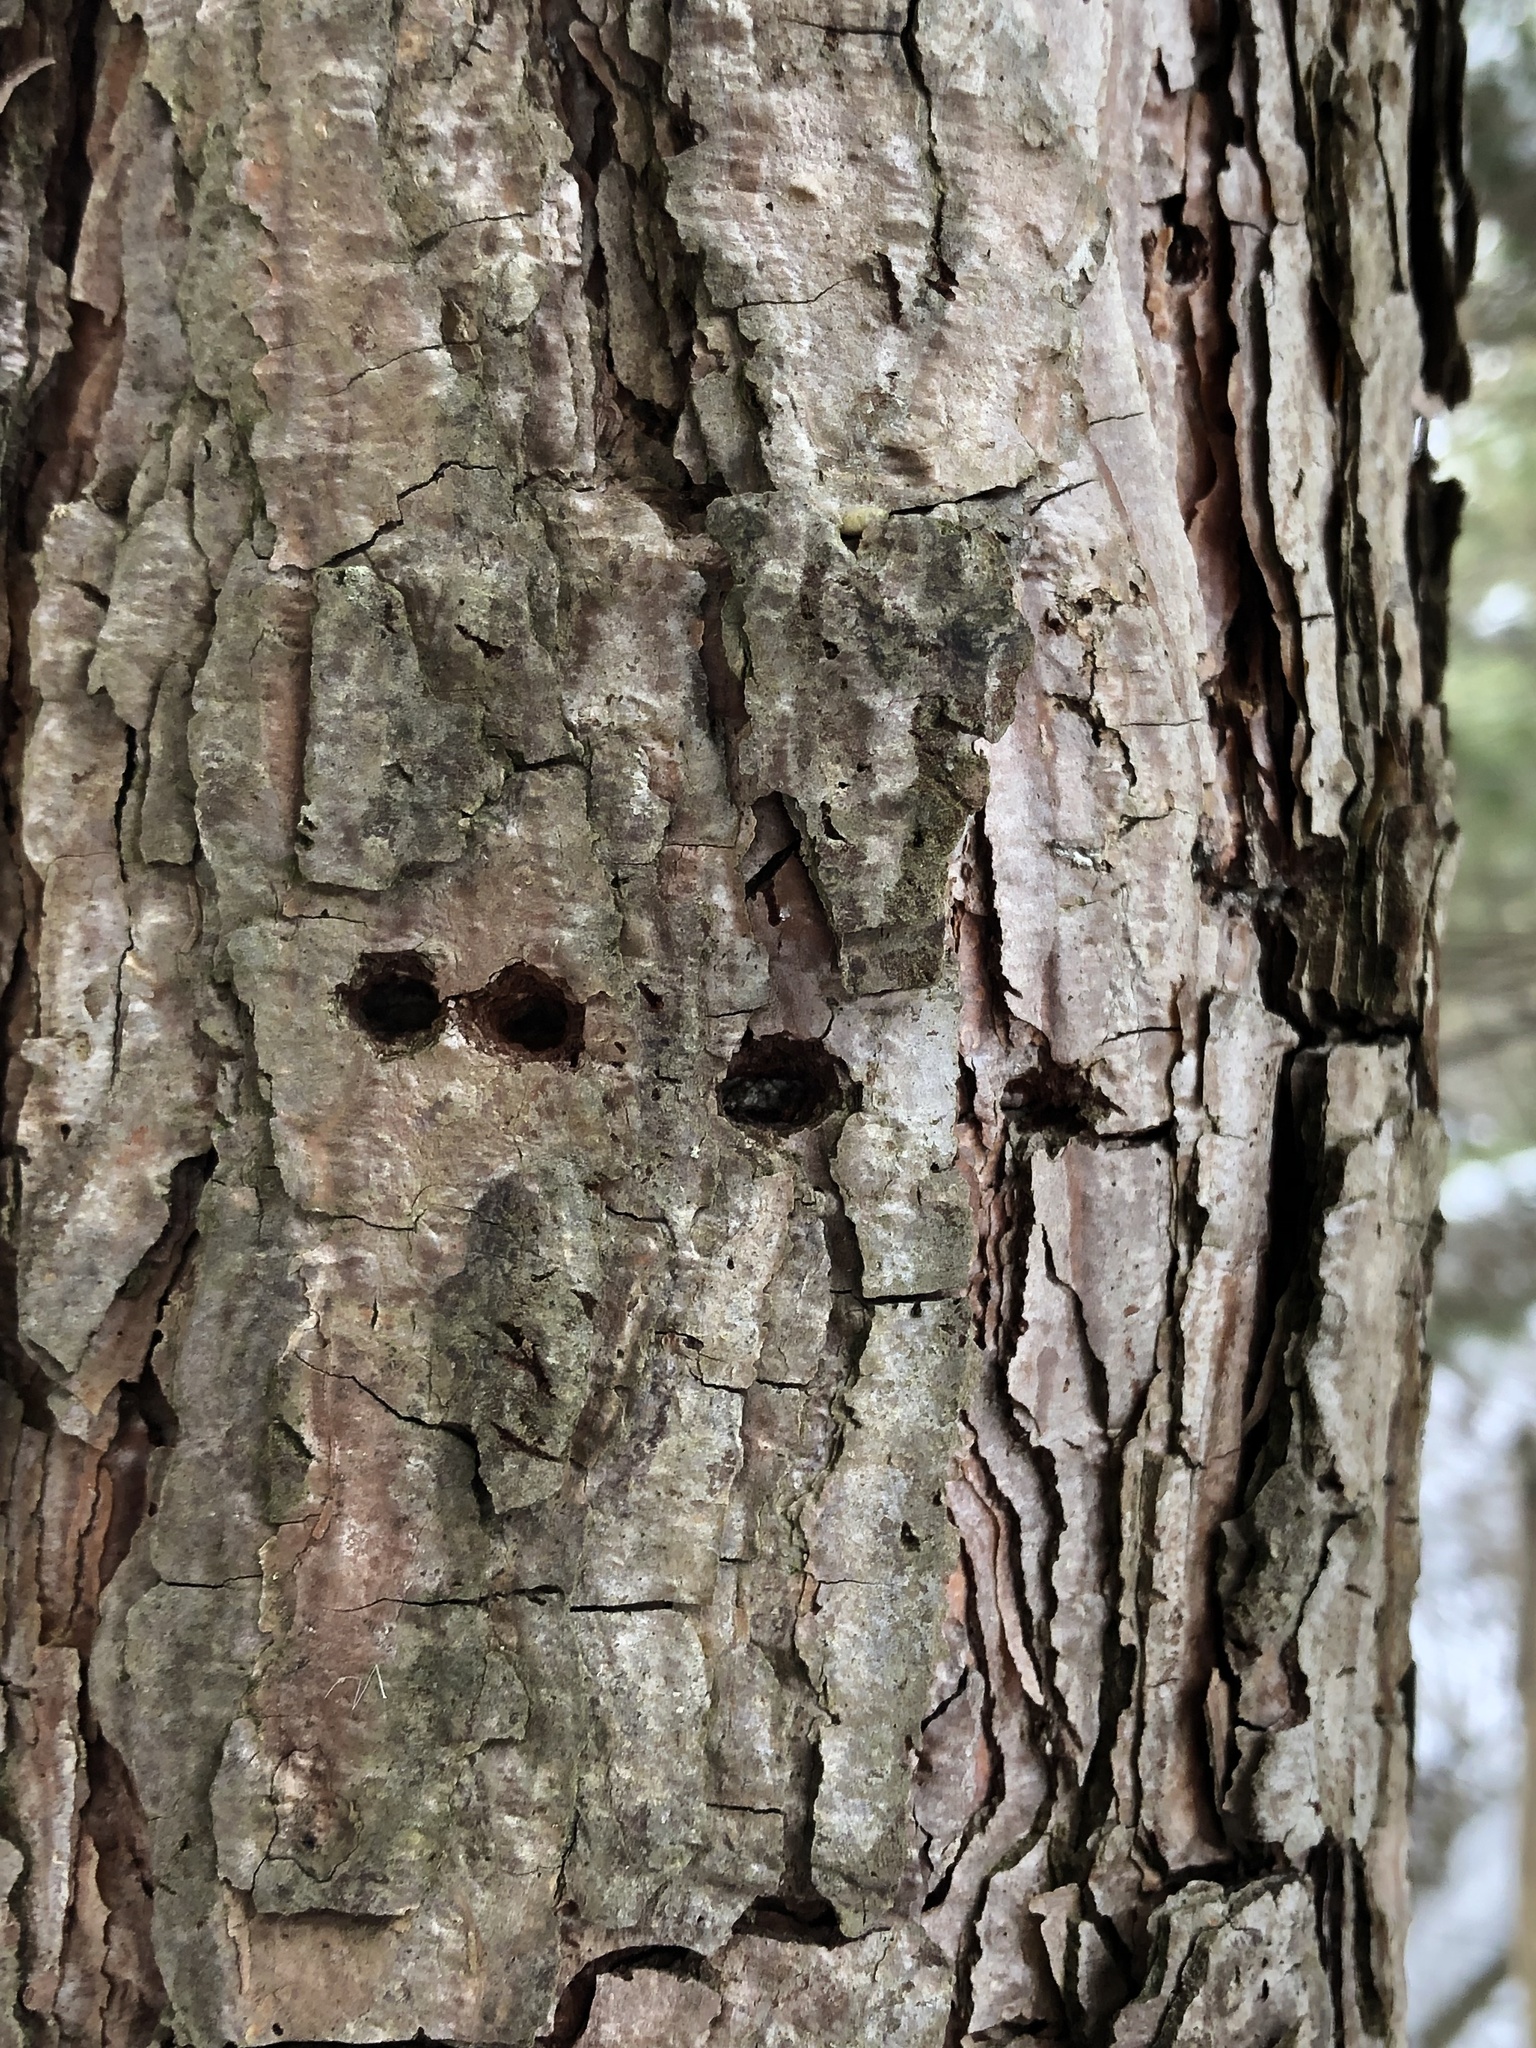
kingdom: Animalia
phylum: Chordata
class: Aves
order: Piciformes
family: Picidae
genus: Sphyrapicus
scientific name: Sphyrapicus varius
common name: Yellow-bellied sapsucker
